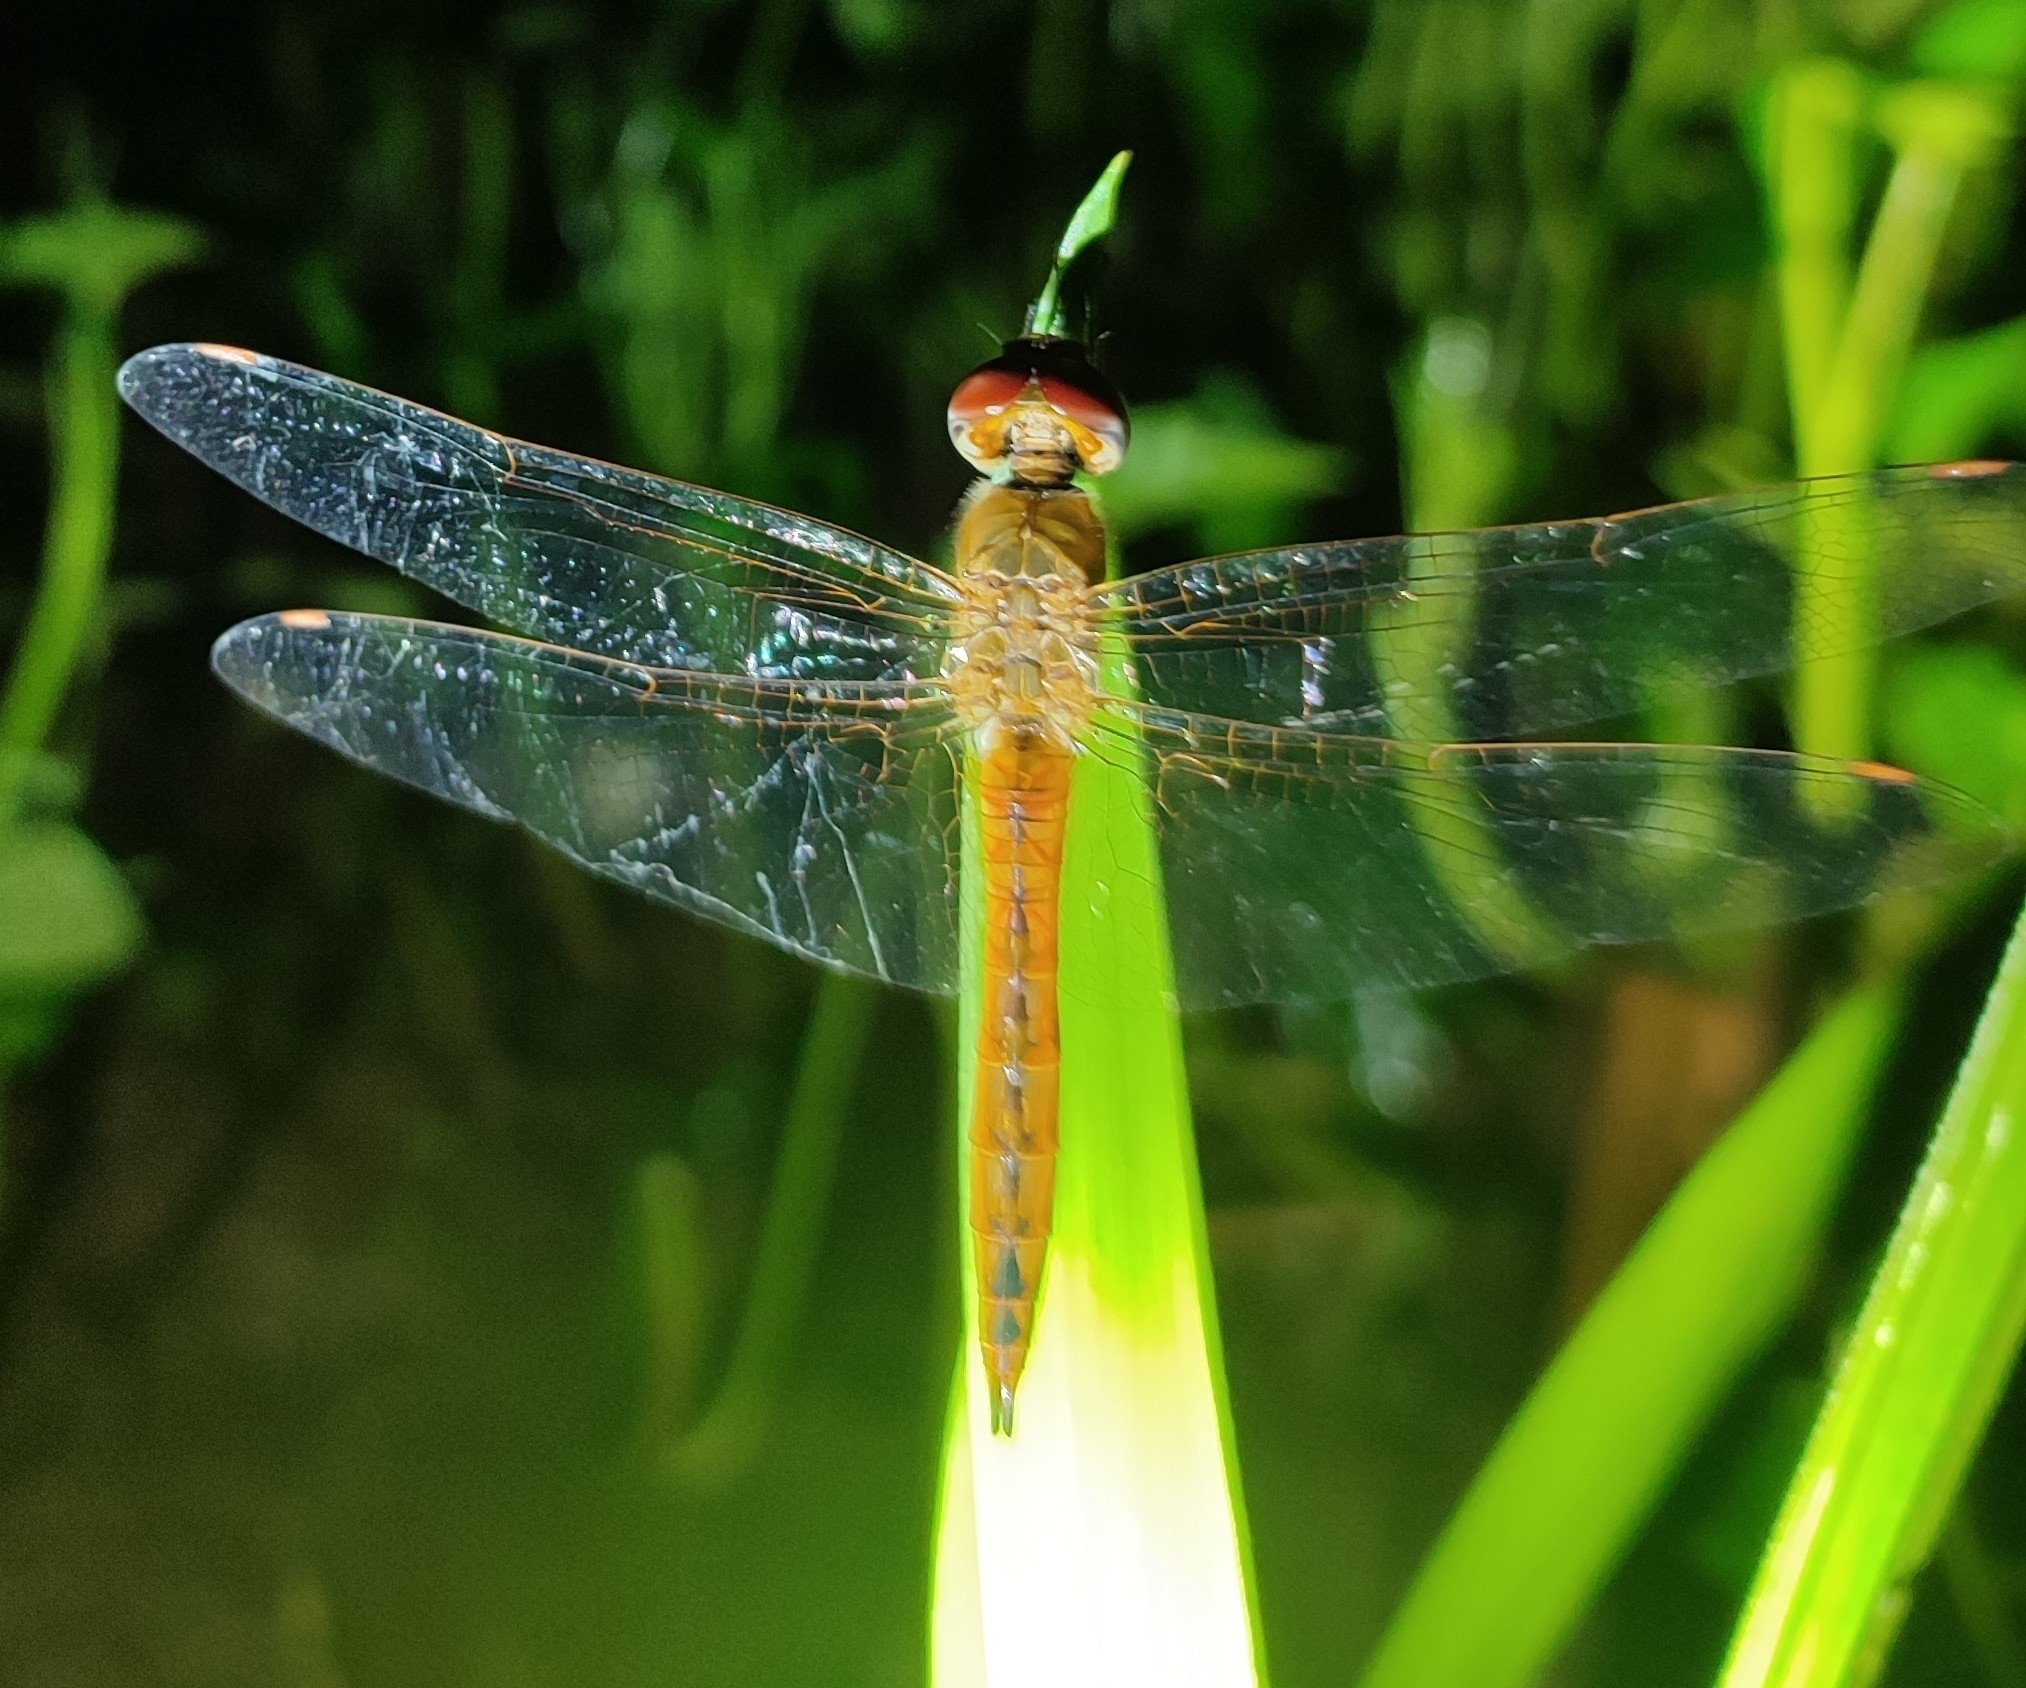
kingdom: Animalia
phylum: Arthropoda
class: Insecta
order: Odonata
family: Libellulidae
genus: Pantala
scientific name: Pantala flavescens
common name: Wandering glider
